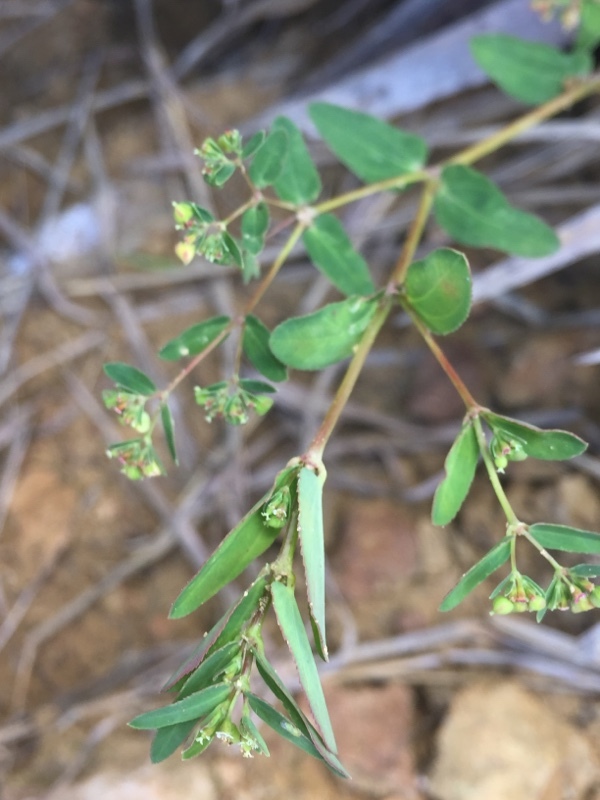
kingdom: Plantae
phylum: Tracheophyta
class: Magnoliopsida
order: Malpighiales
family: Euphorbiaceae
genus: Euphorbia
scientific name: Euphorbia hyssopifolia
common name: Hyssopleaf sandmat
